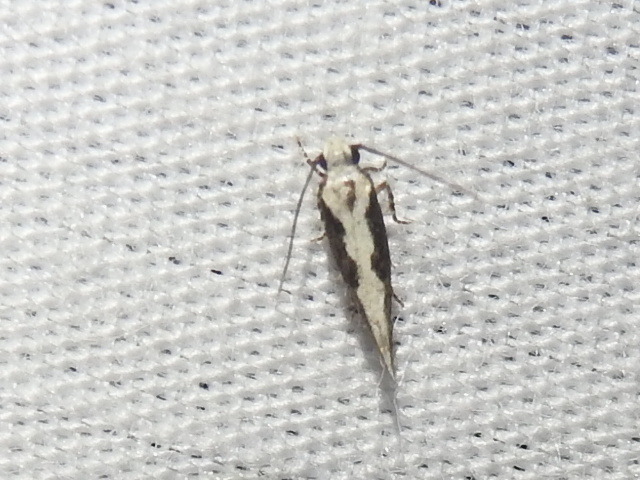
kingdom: Animalia
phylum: Arthropoda
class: Insecta
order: Lepidoptera
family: Gelechiidae
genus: Coleotechnites
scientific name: Coleotechnites florae
